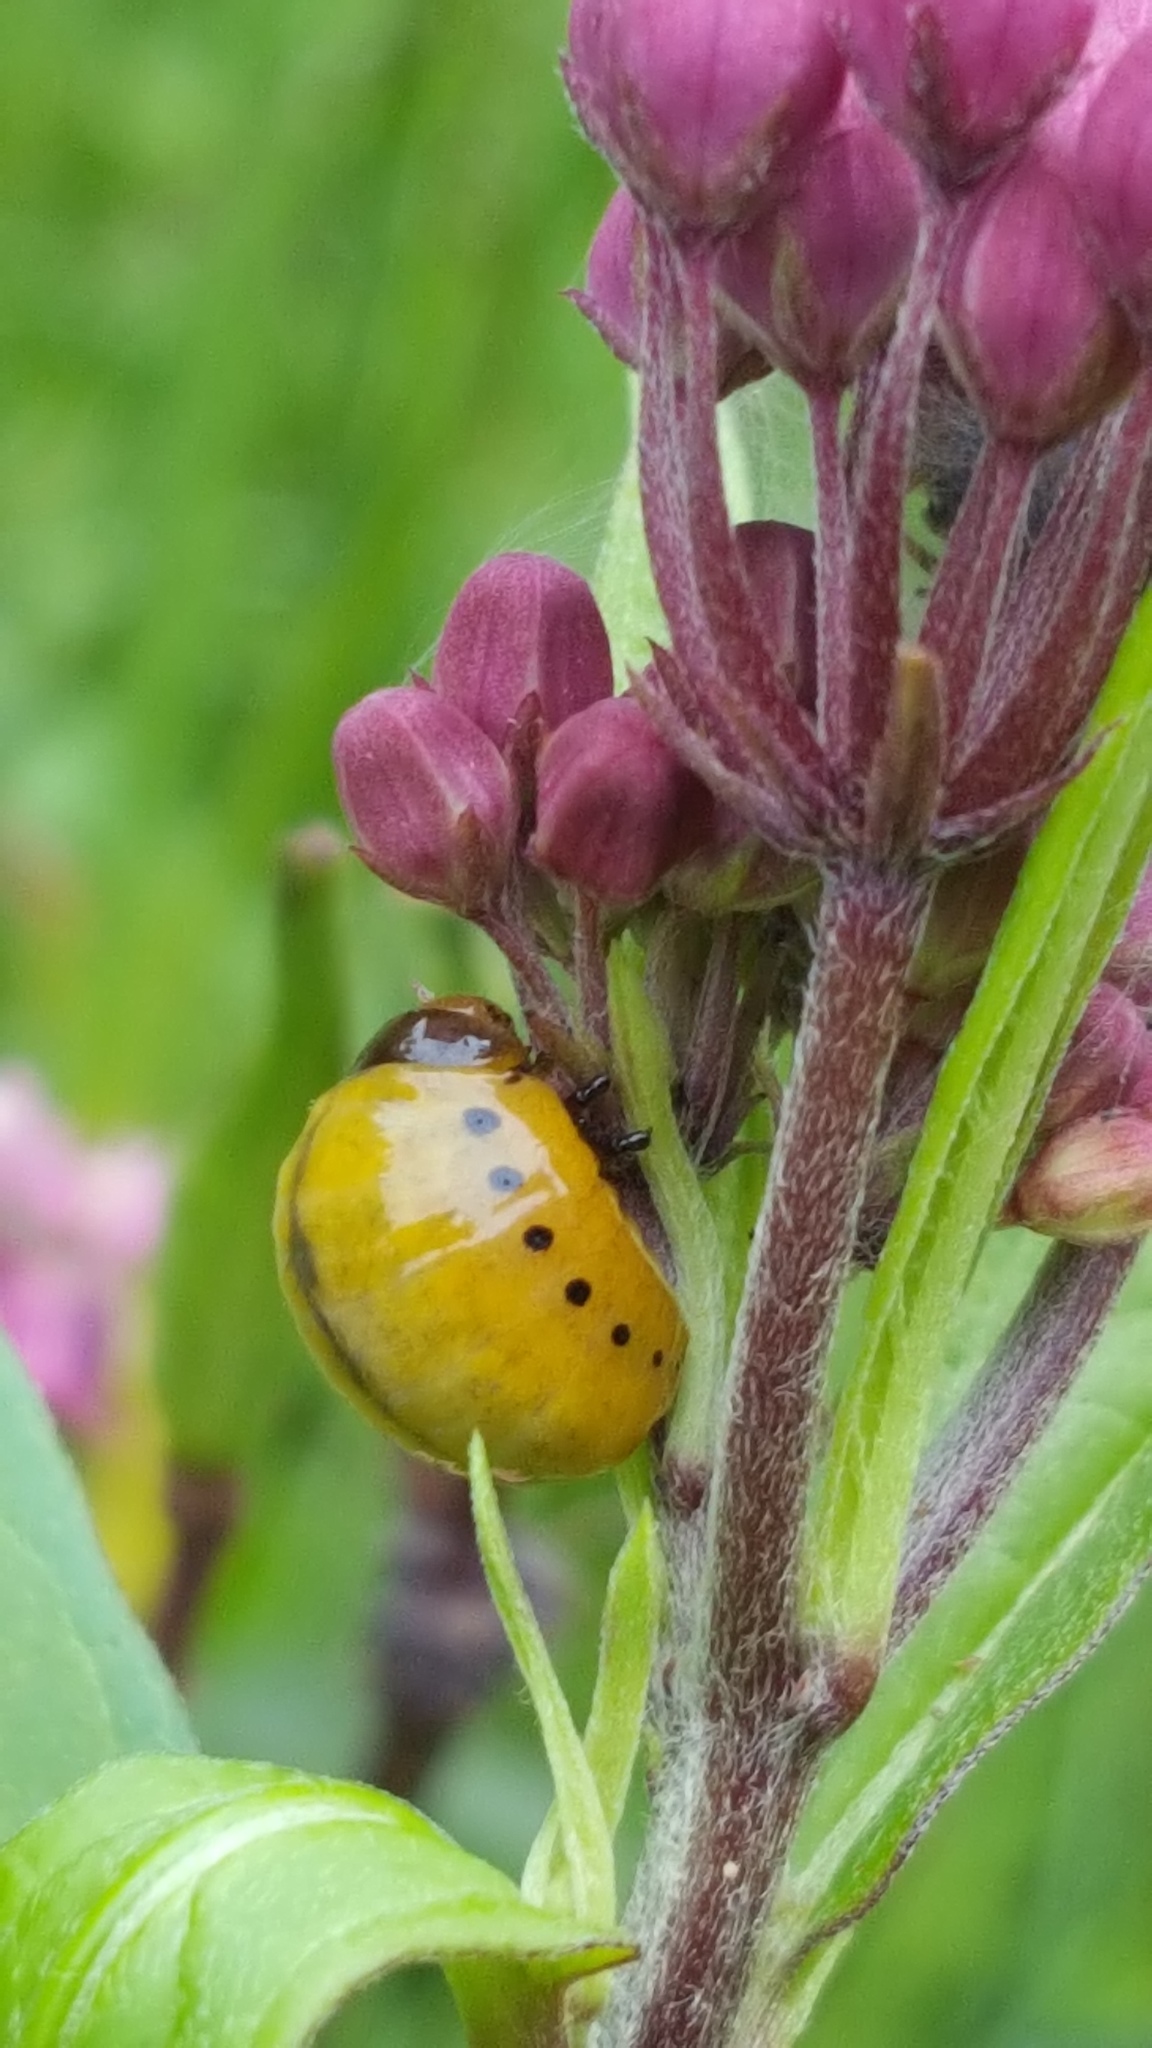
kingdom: Animalia
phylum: Arthropoda
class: Insecta
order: Coleoptera
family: Chrysomelidae
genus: Labidomera
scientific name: Labidomera clivicollis
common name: Swamp milkweed leaf beetle
